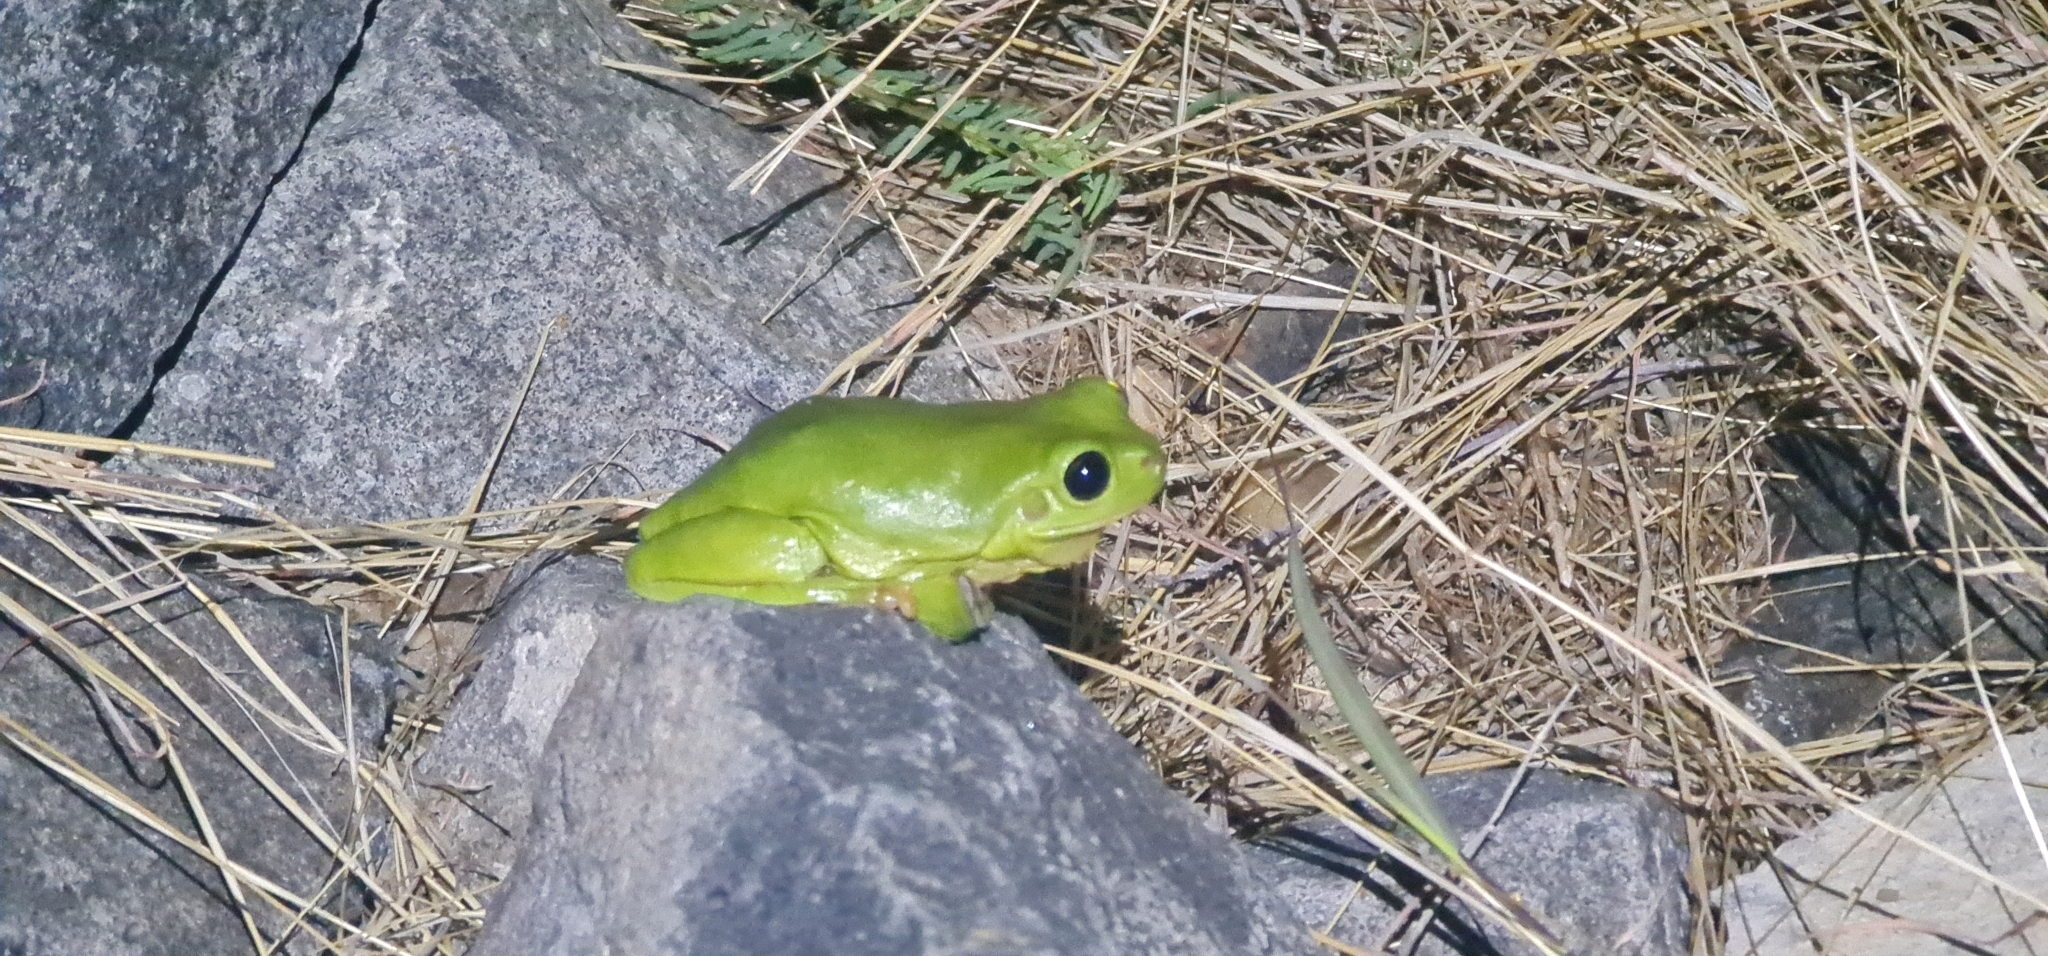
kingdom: Animalia
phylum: Chordata
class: Amphibia
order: Anura
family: Pelodryadidae
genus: Ranoidea
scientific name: Ranoidea caerulea
